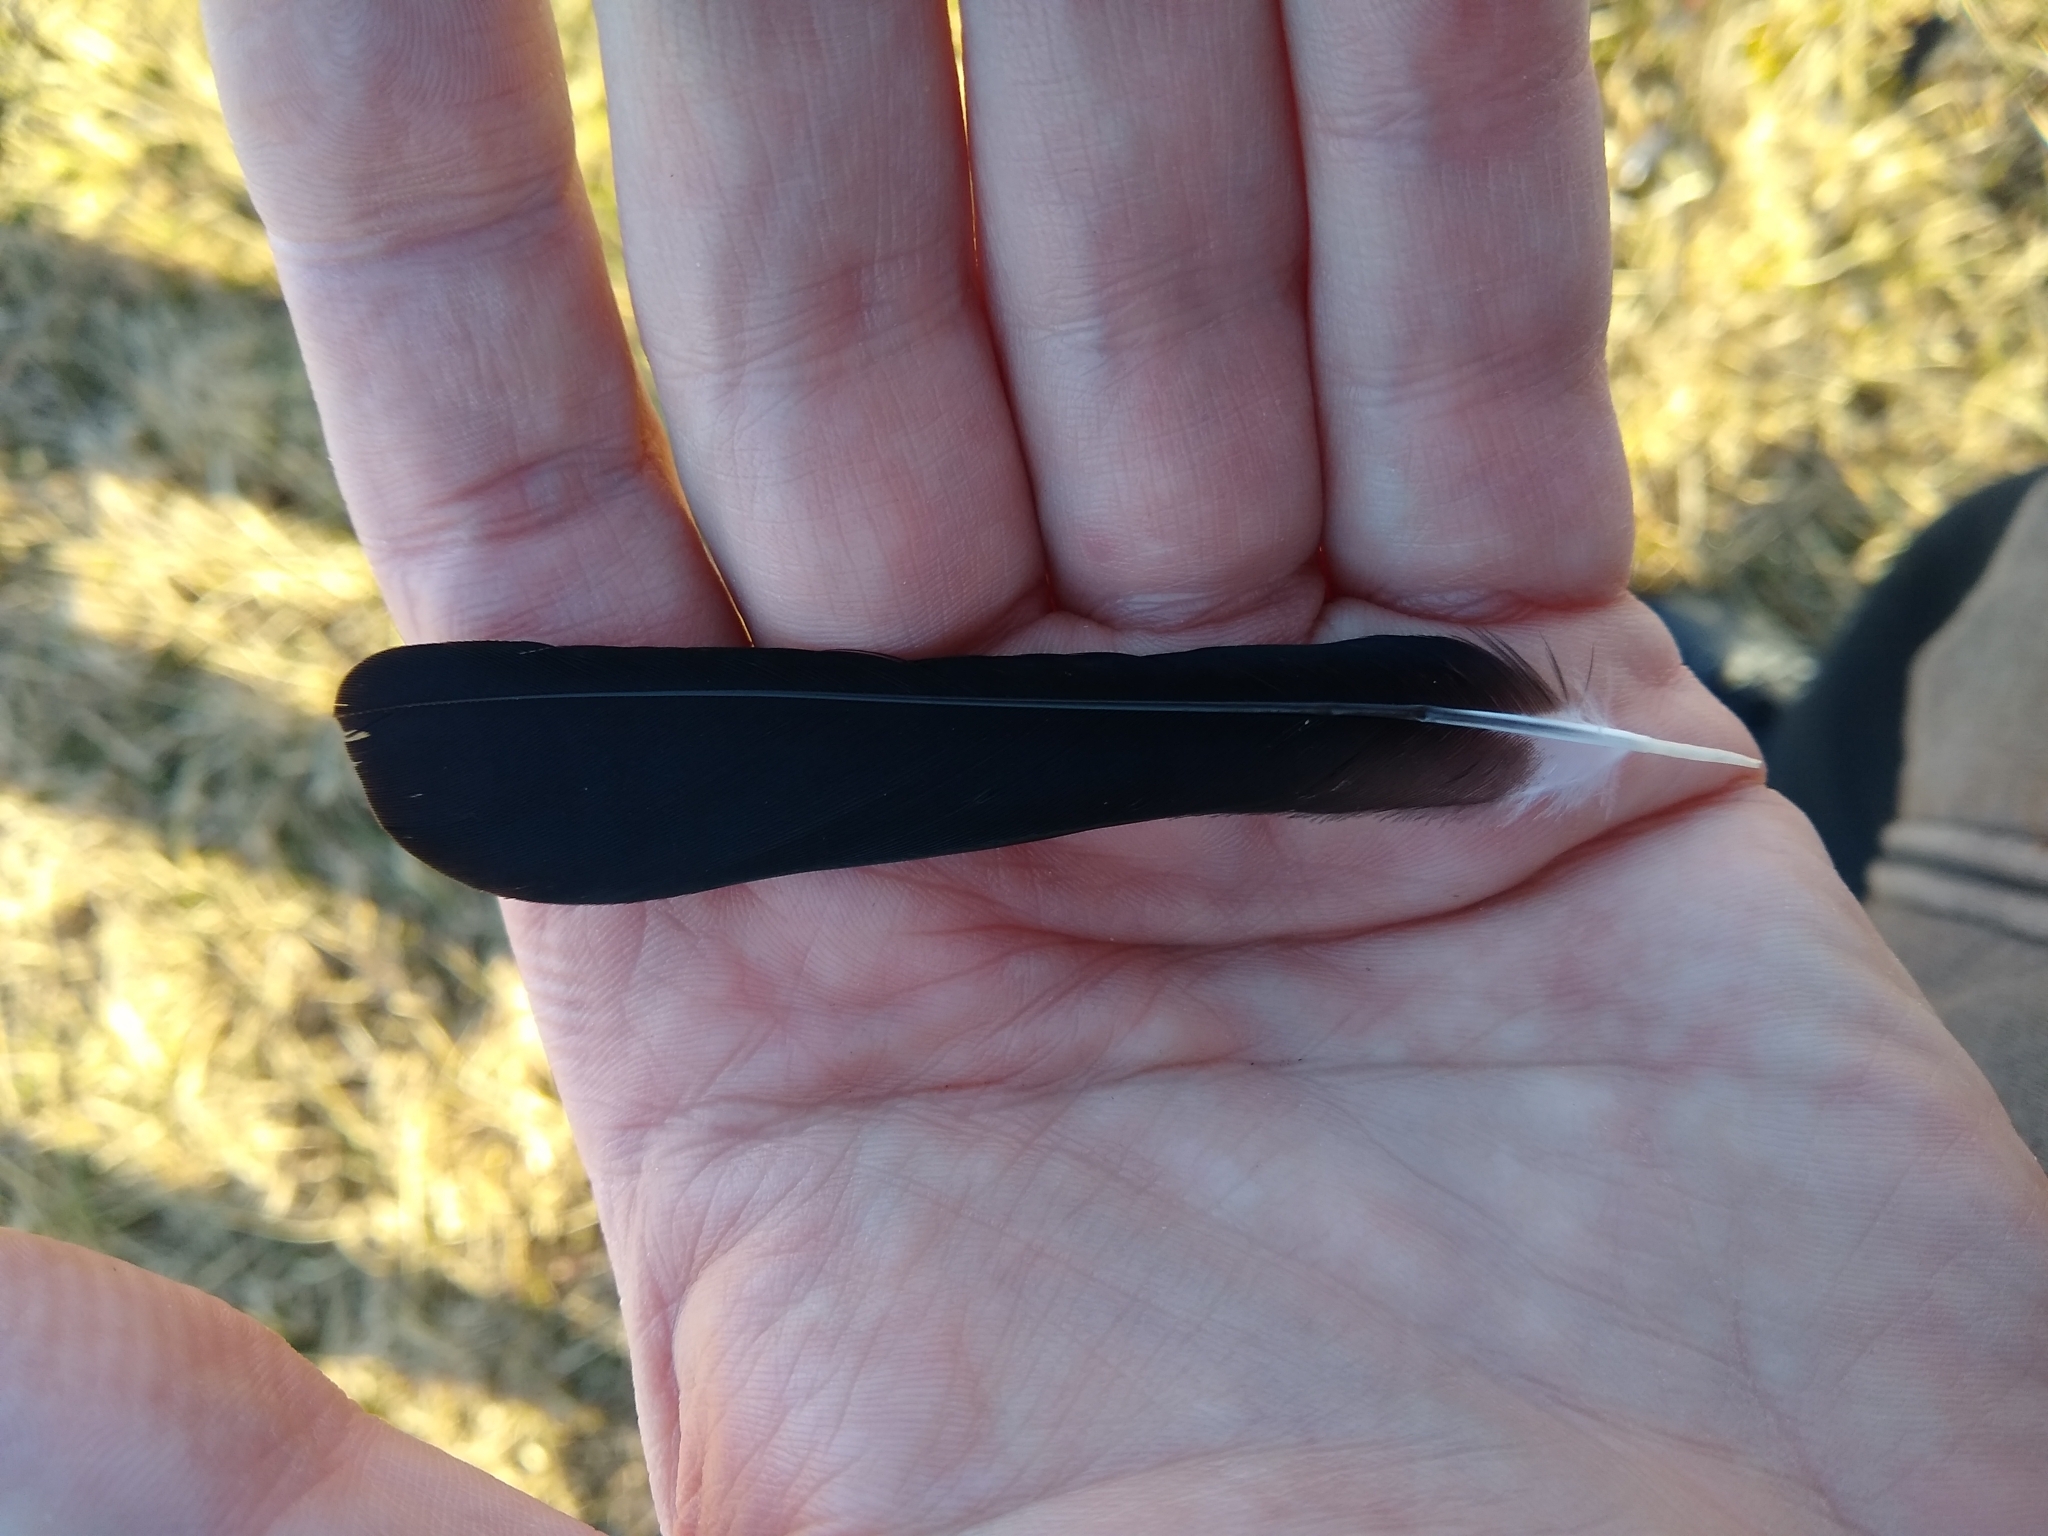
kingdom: Animalia
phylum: Chordata
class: Aves
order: Passeriformes
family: Icteridae
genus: Agelaius
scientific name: Agelaius phoeniceus
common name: Red-winged blackbird
